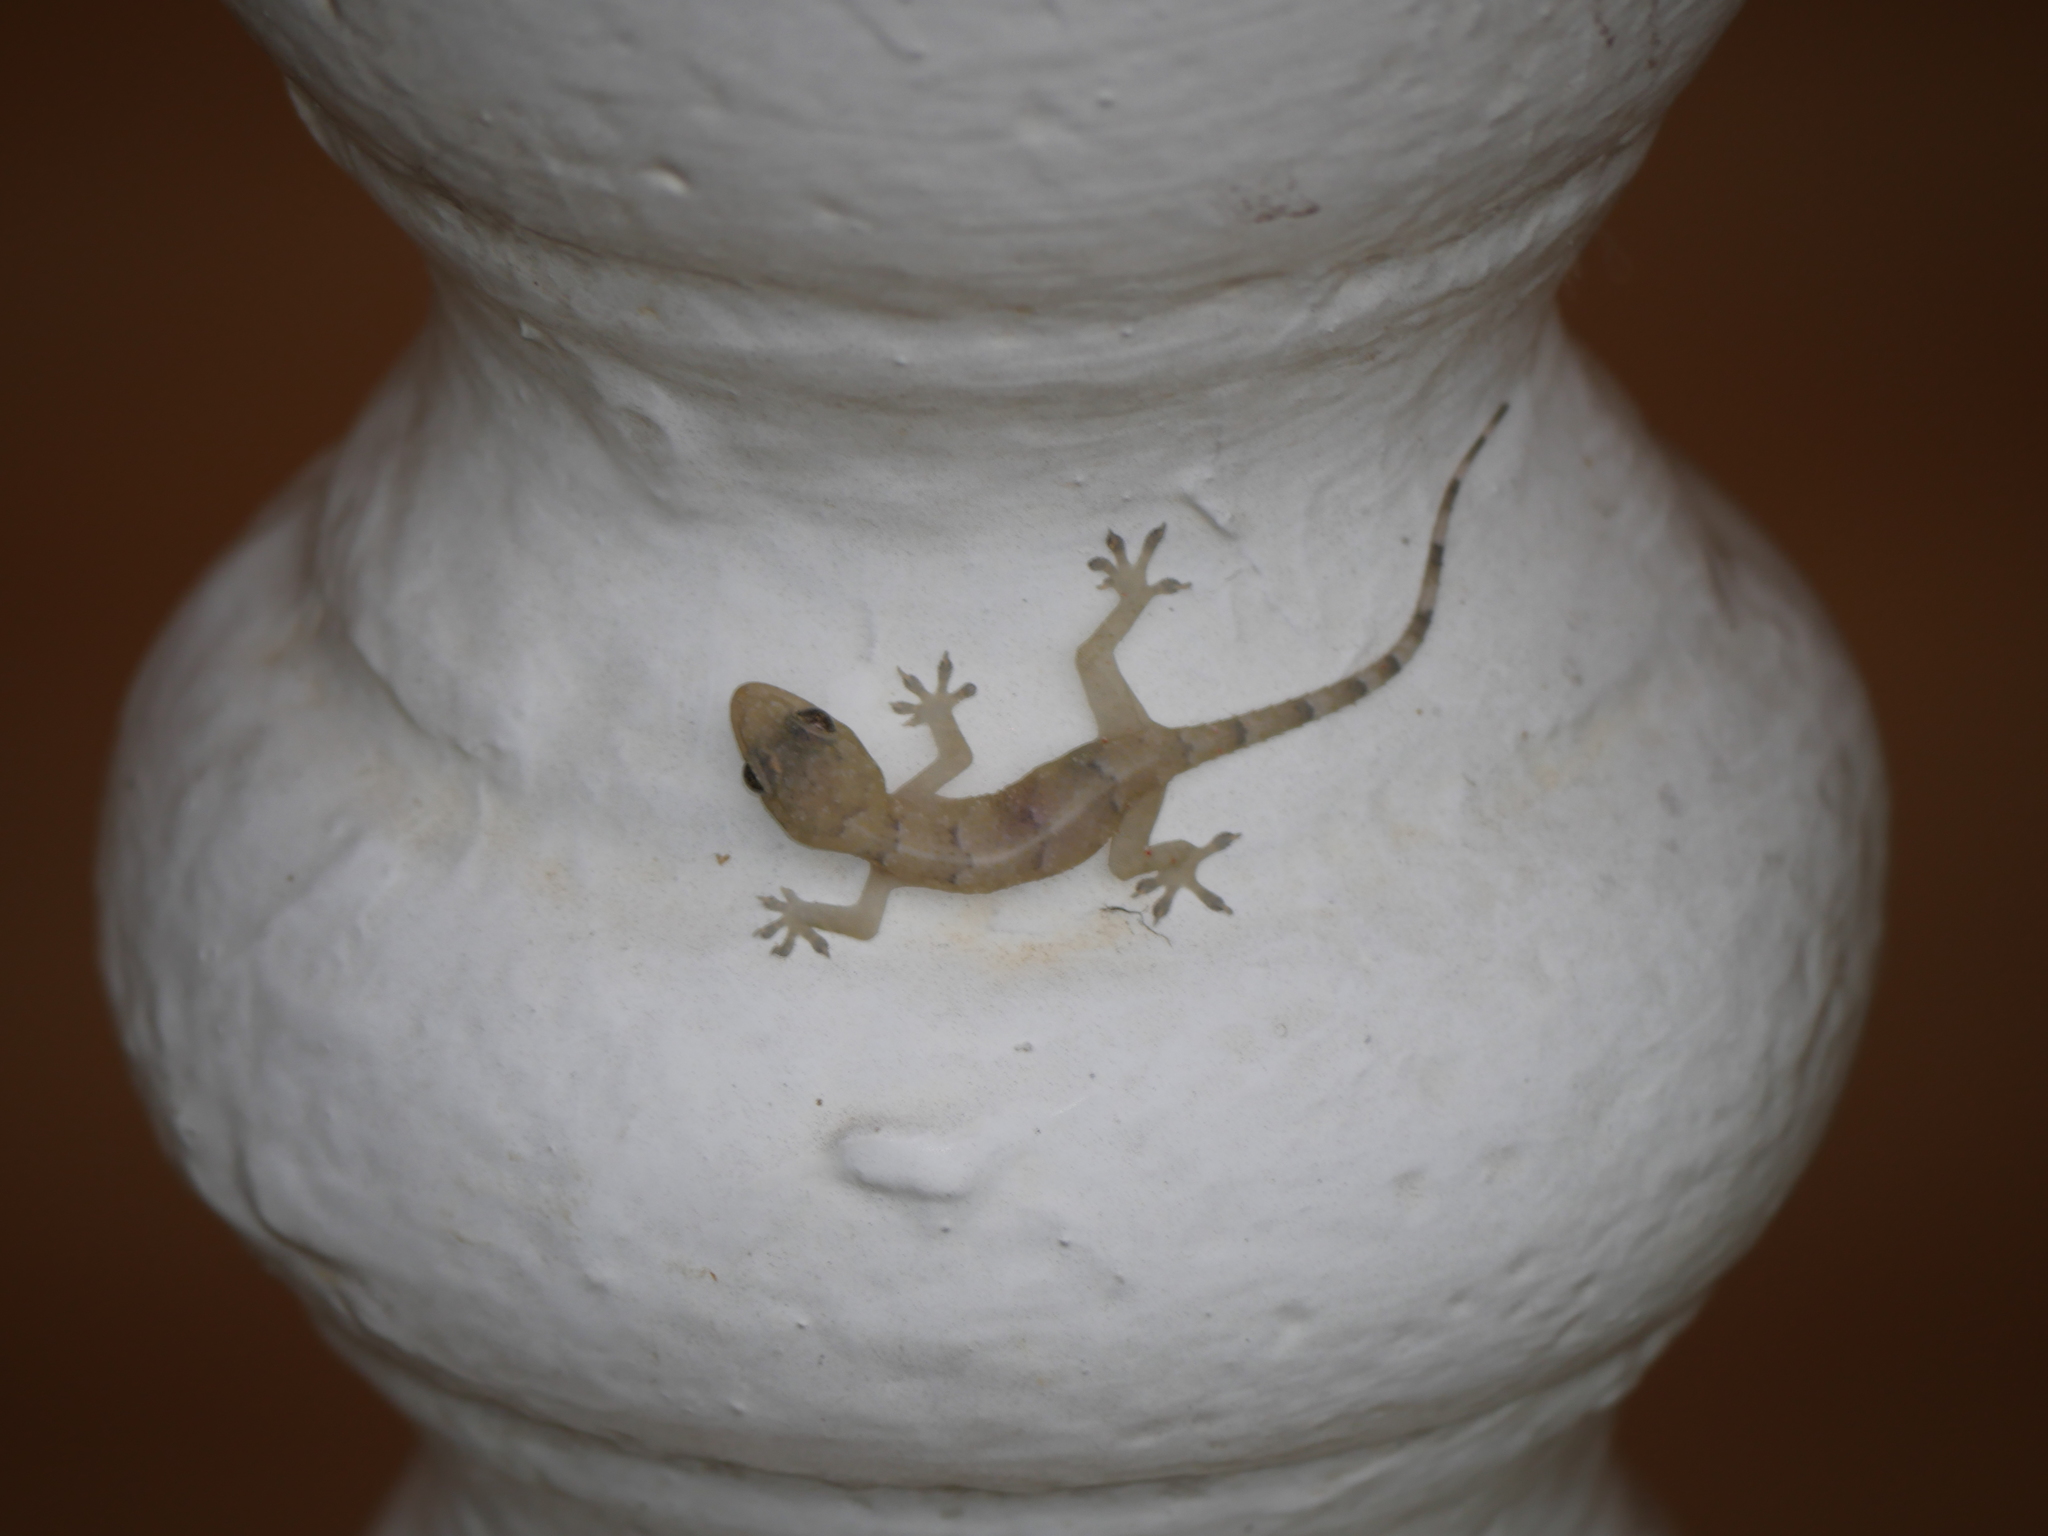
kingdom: Animalia
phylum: Chordata
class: Squamata
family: Gekkonidae
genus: Hemidactylus
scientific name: Hemidactylus mabouia
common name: House gecko
